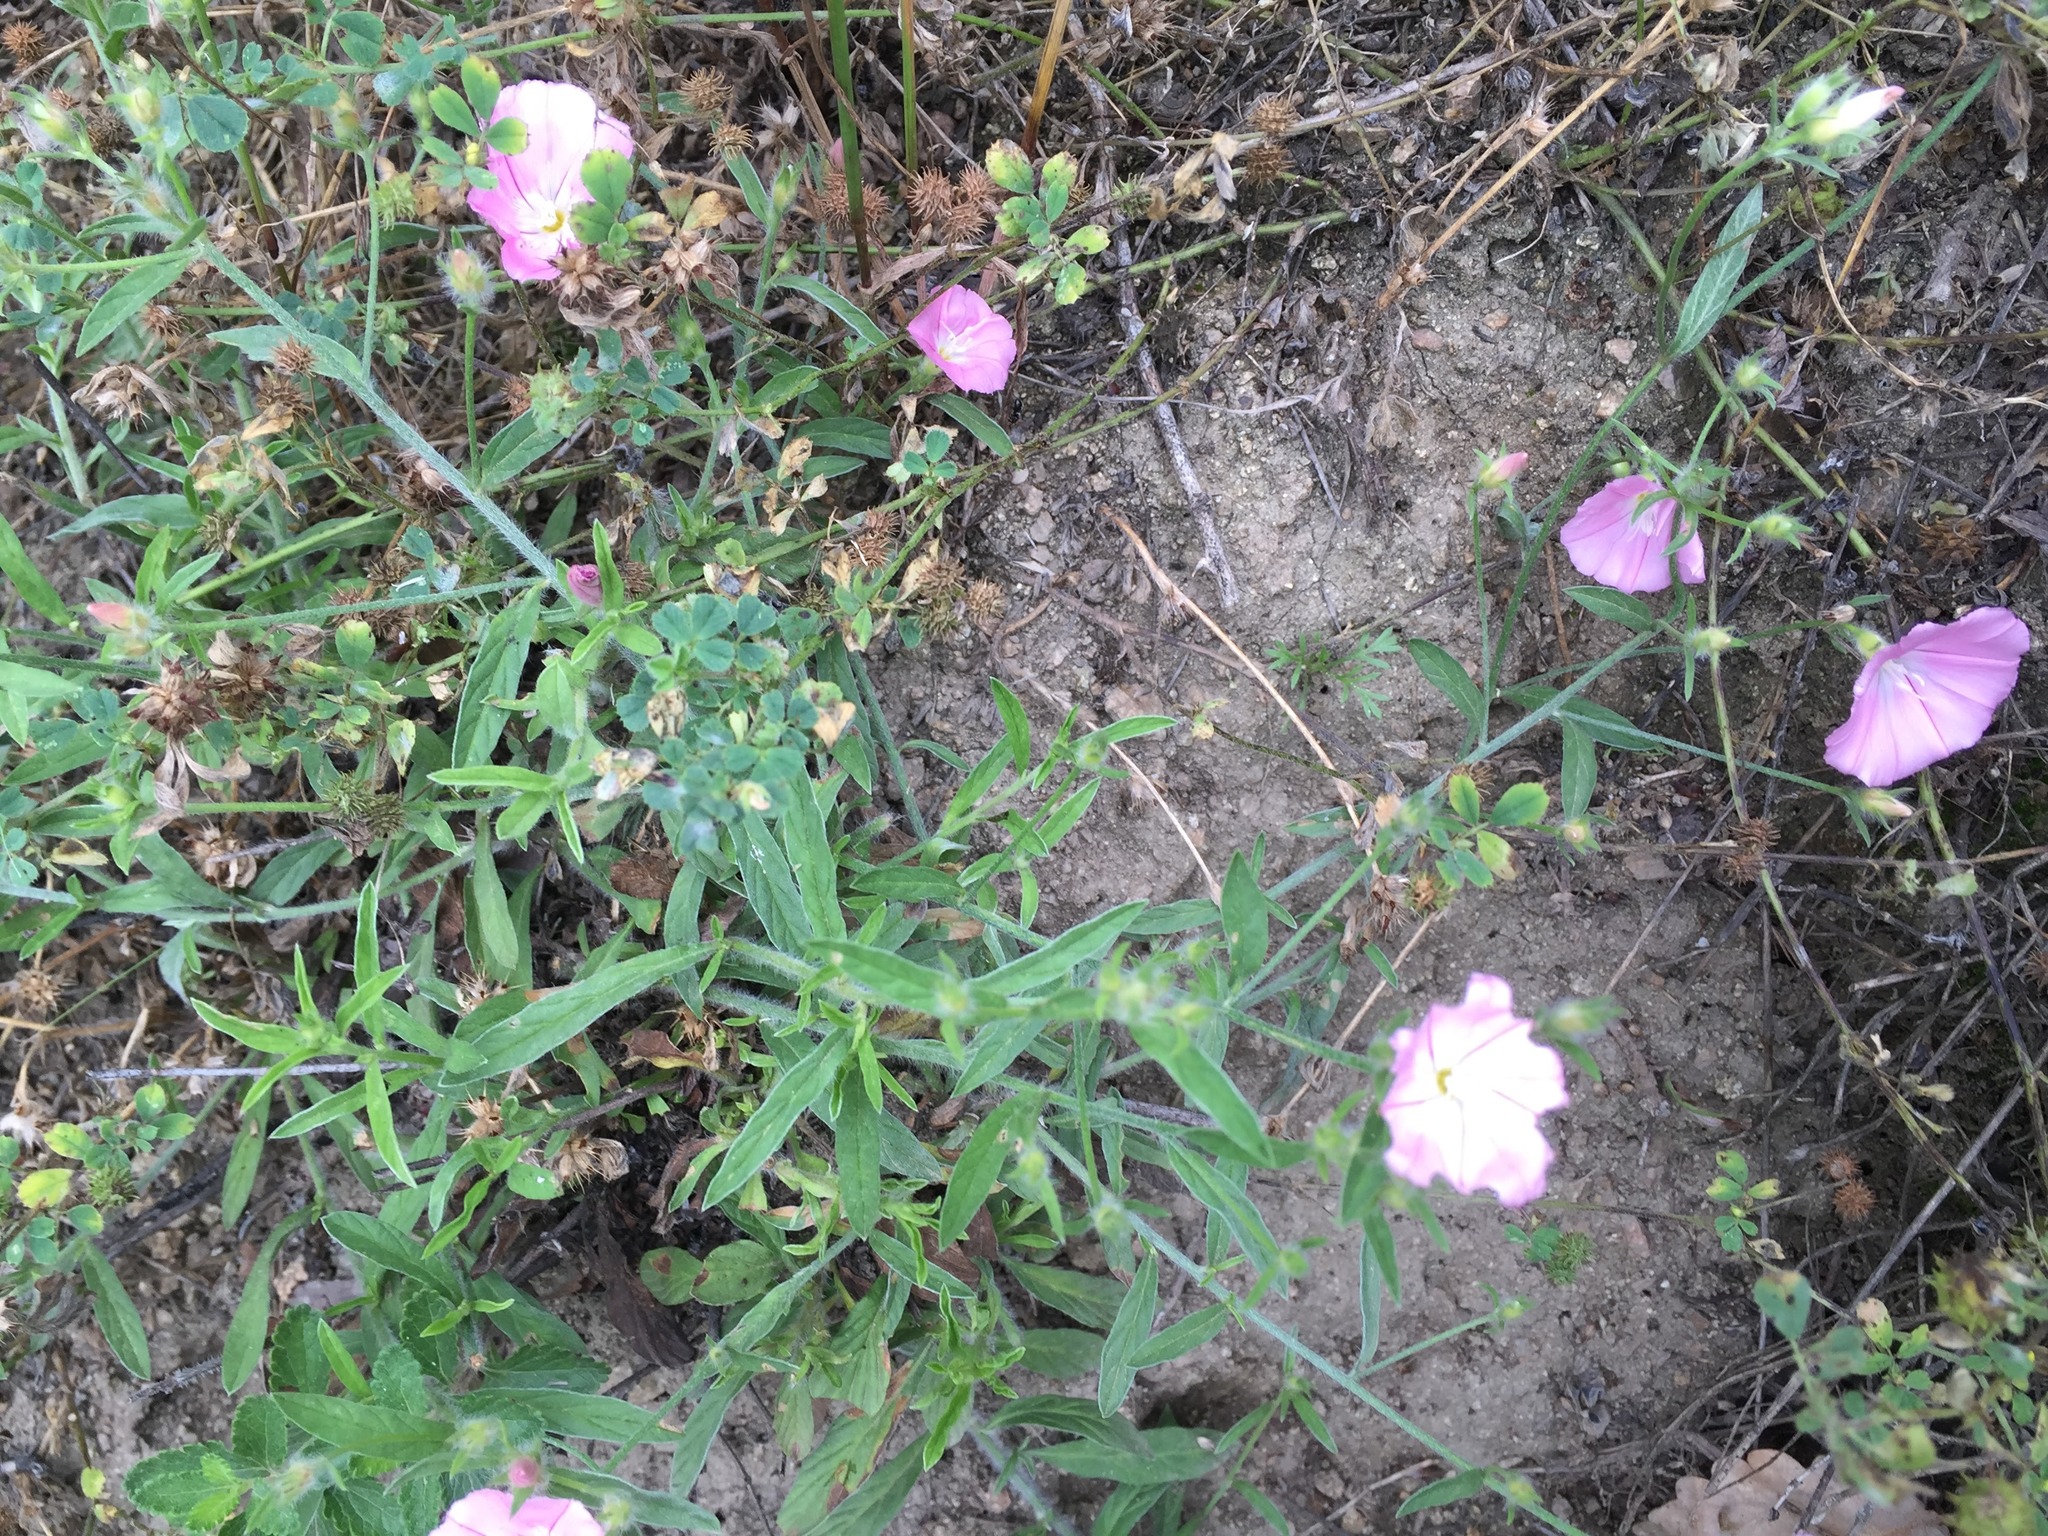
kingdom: Plantae
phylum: Tracheophyta
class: Magnoliopsida
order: Solanales
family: Convolvulaceae
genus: Convolvulus
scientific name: Convolvulus cantabrica
